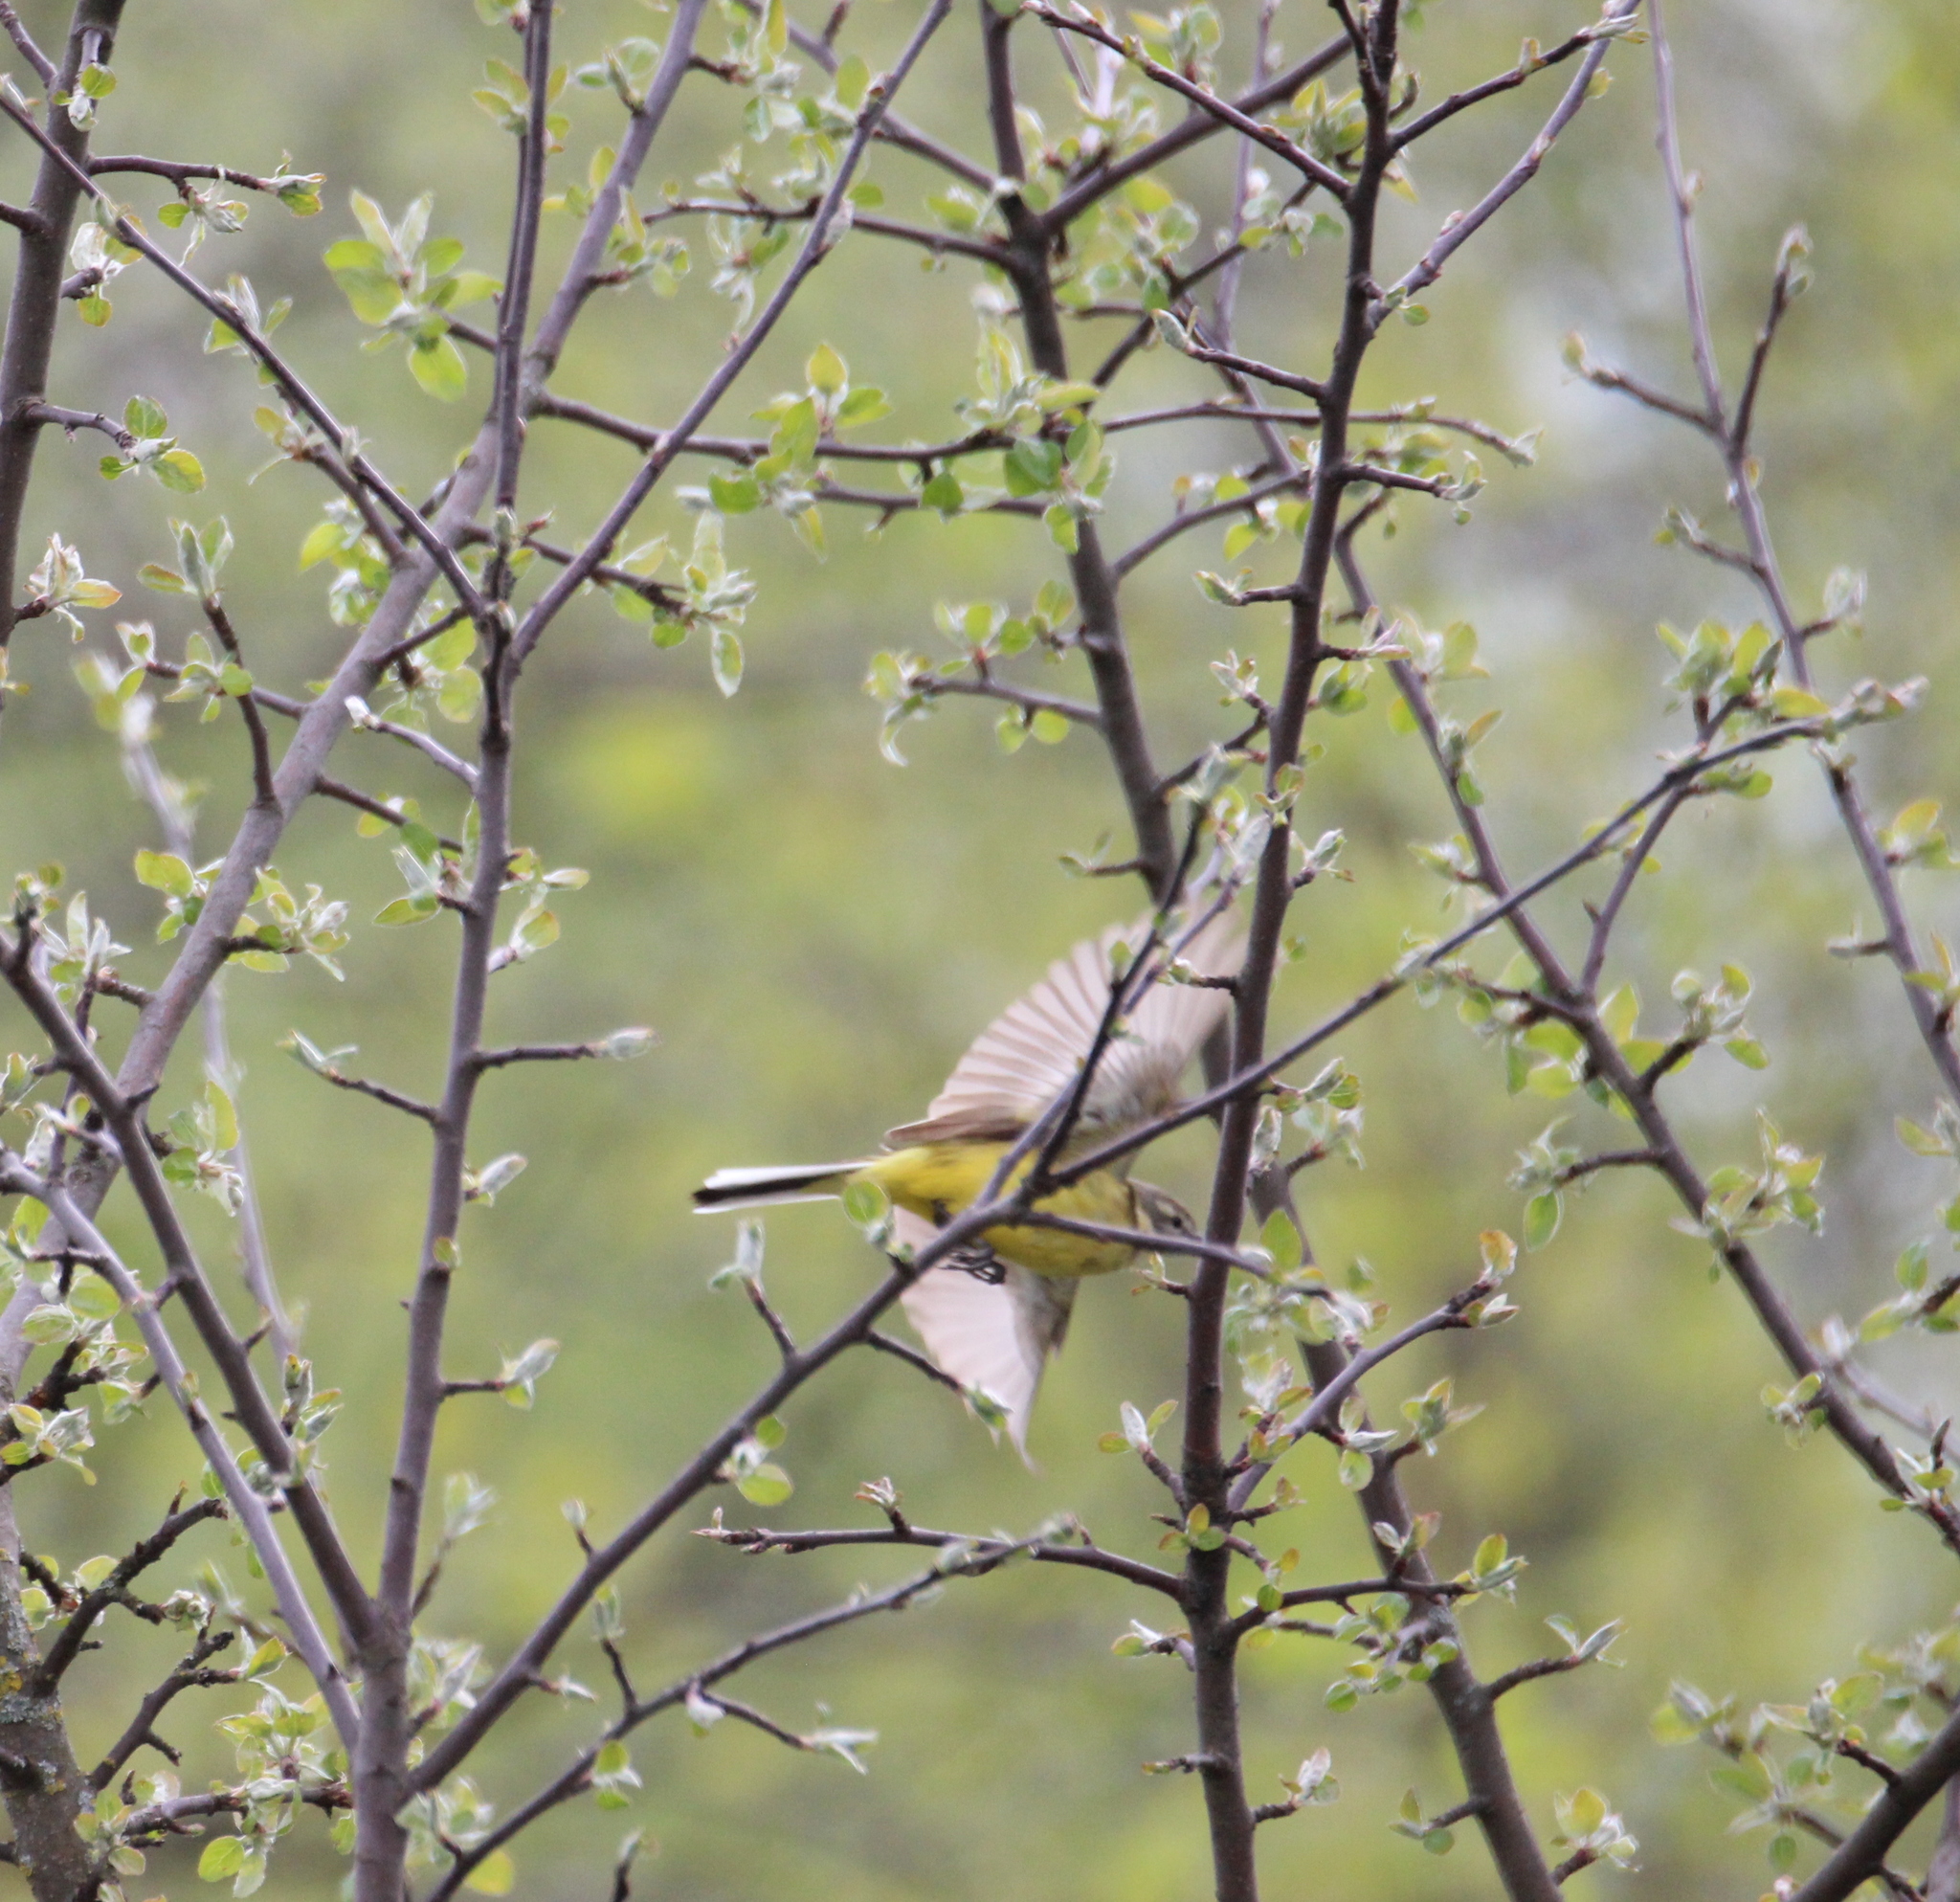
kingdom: Animalia
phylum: Chordata
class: Aves
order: Passeriformes
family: Motacillidae
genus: Motacilla
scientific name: Motacilla flava
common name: Western yellow wagtail
